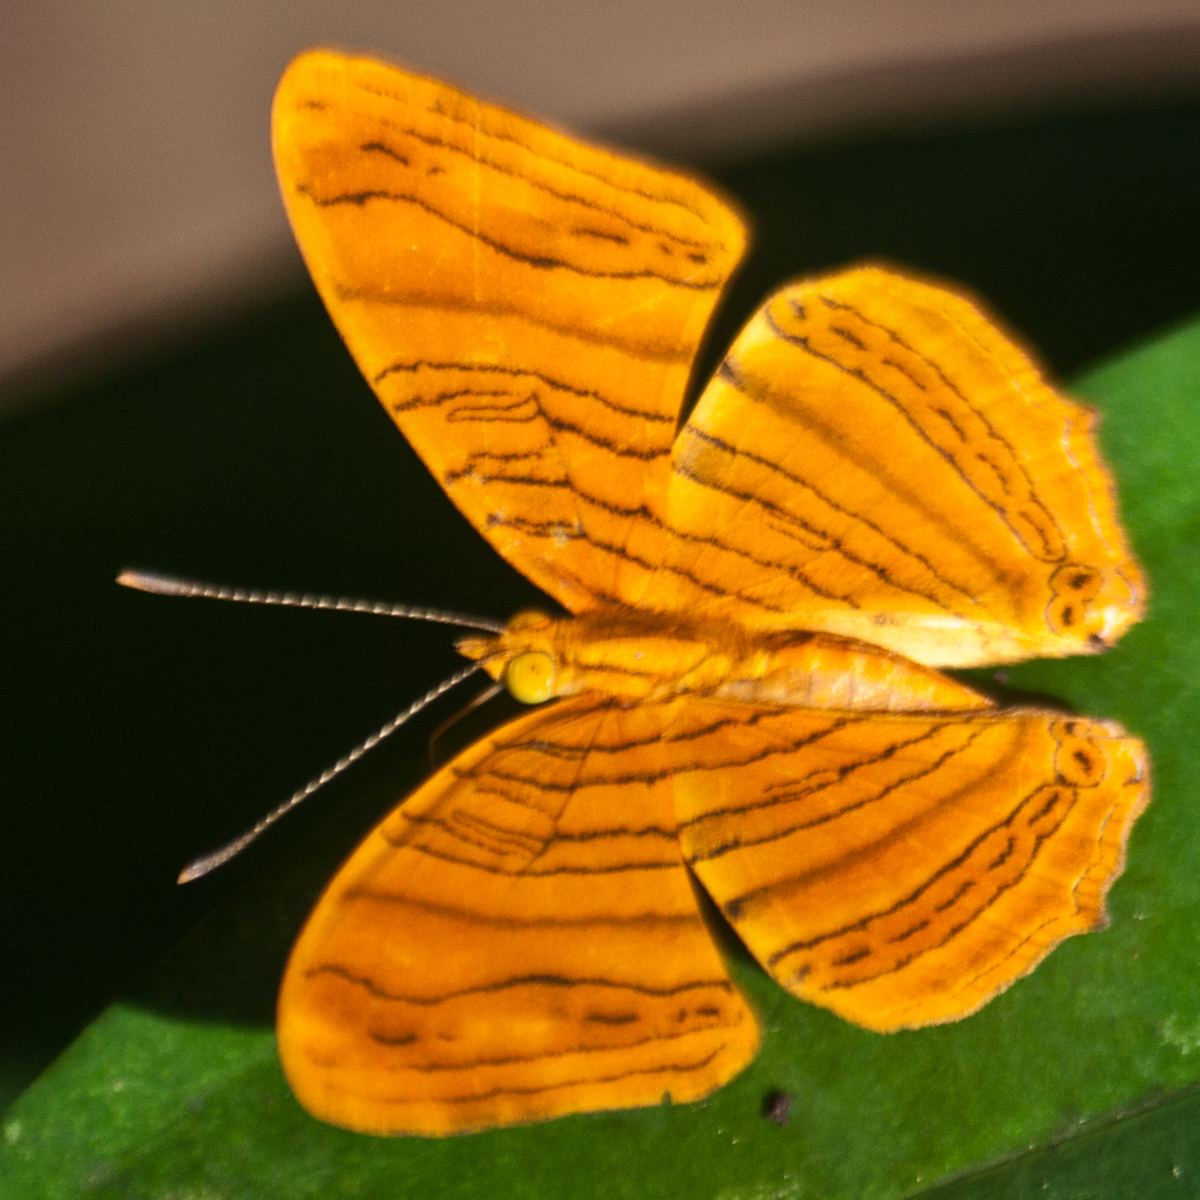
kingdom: Animalia
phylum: Arthropoda
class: Insecta
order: Lepidoptera
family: Nymphalidae
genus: Chersonesia
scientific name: Chersonesia intermedia
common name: Intermediate maplet
